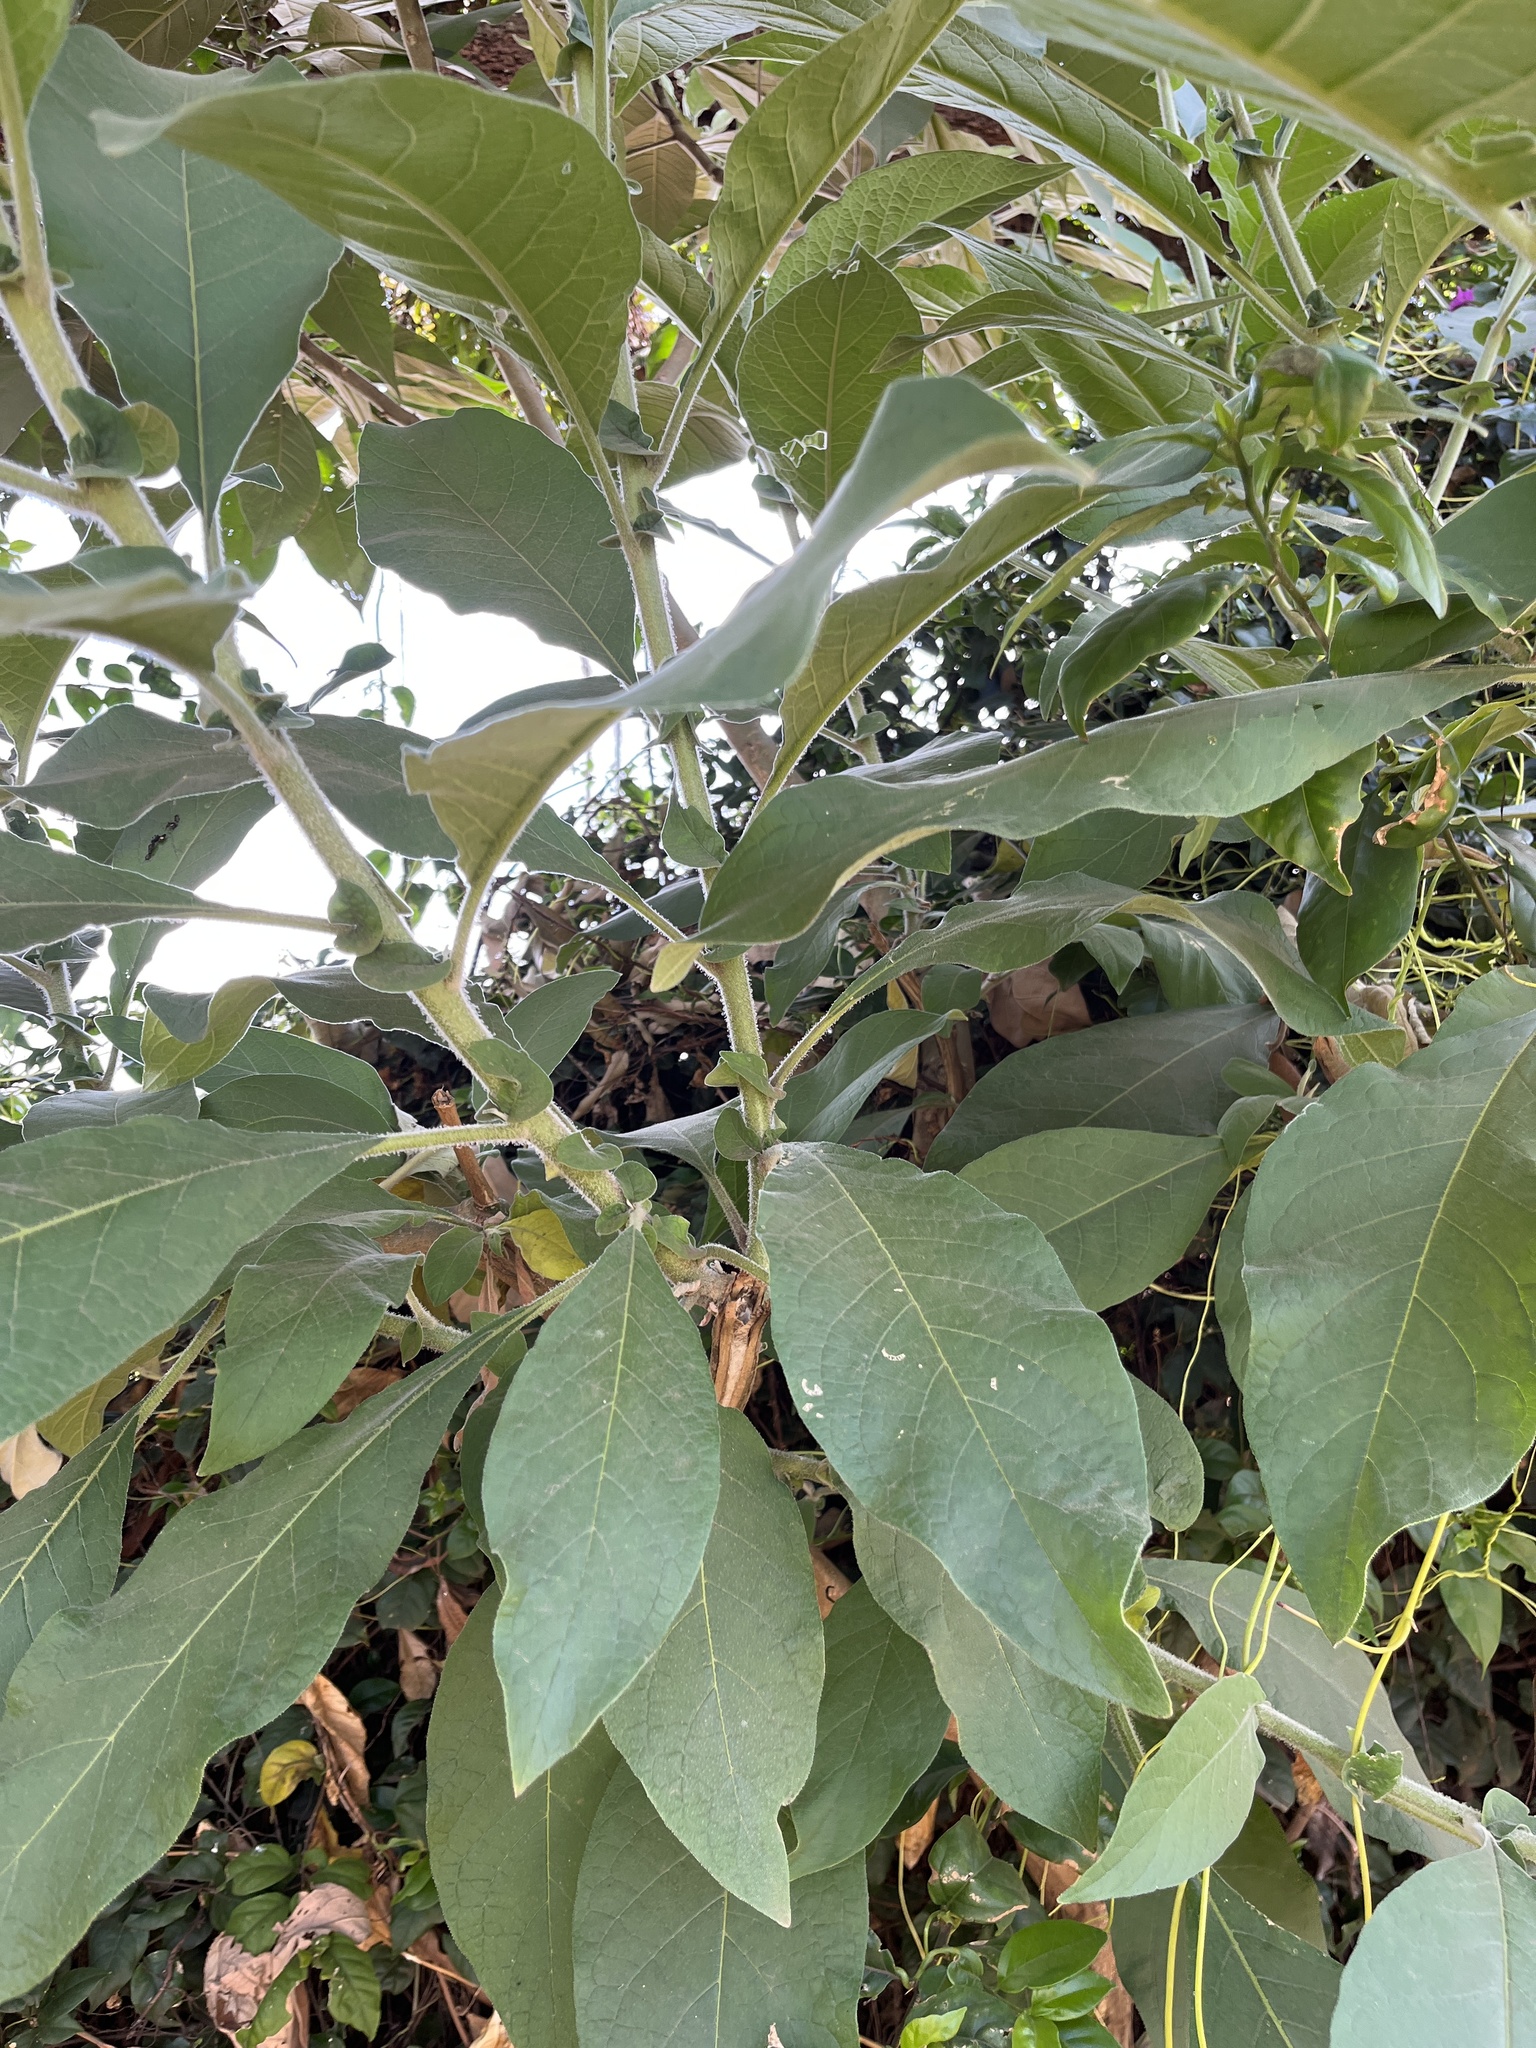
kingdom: Plantae
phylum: Tracheophyta
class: Magnoliopsida
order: Solanales
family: Solanaceae
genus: Solanum
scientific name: Solanum mauritianum
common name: Earleaf nightshade
